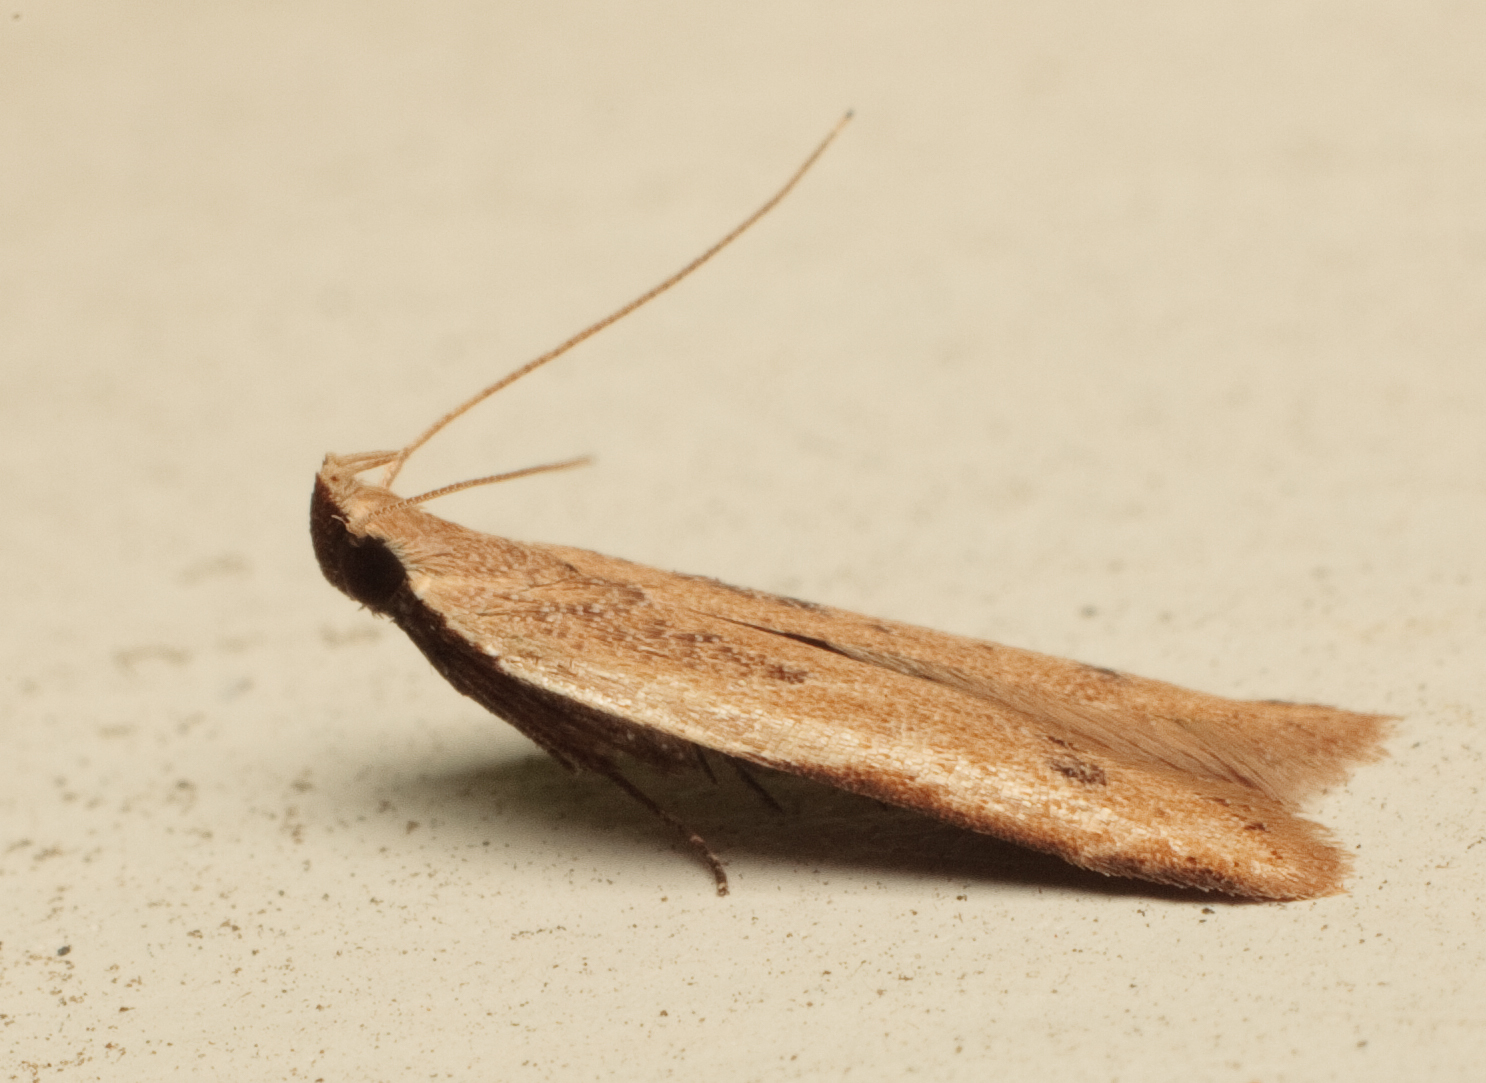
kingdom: Animalia
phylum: Arthropoda
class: Insecta
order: Lepidoptera
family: Gelechiidae
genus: Mesophleps
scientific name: Mesophleps adustipennis
